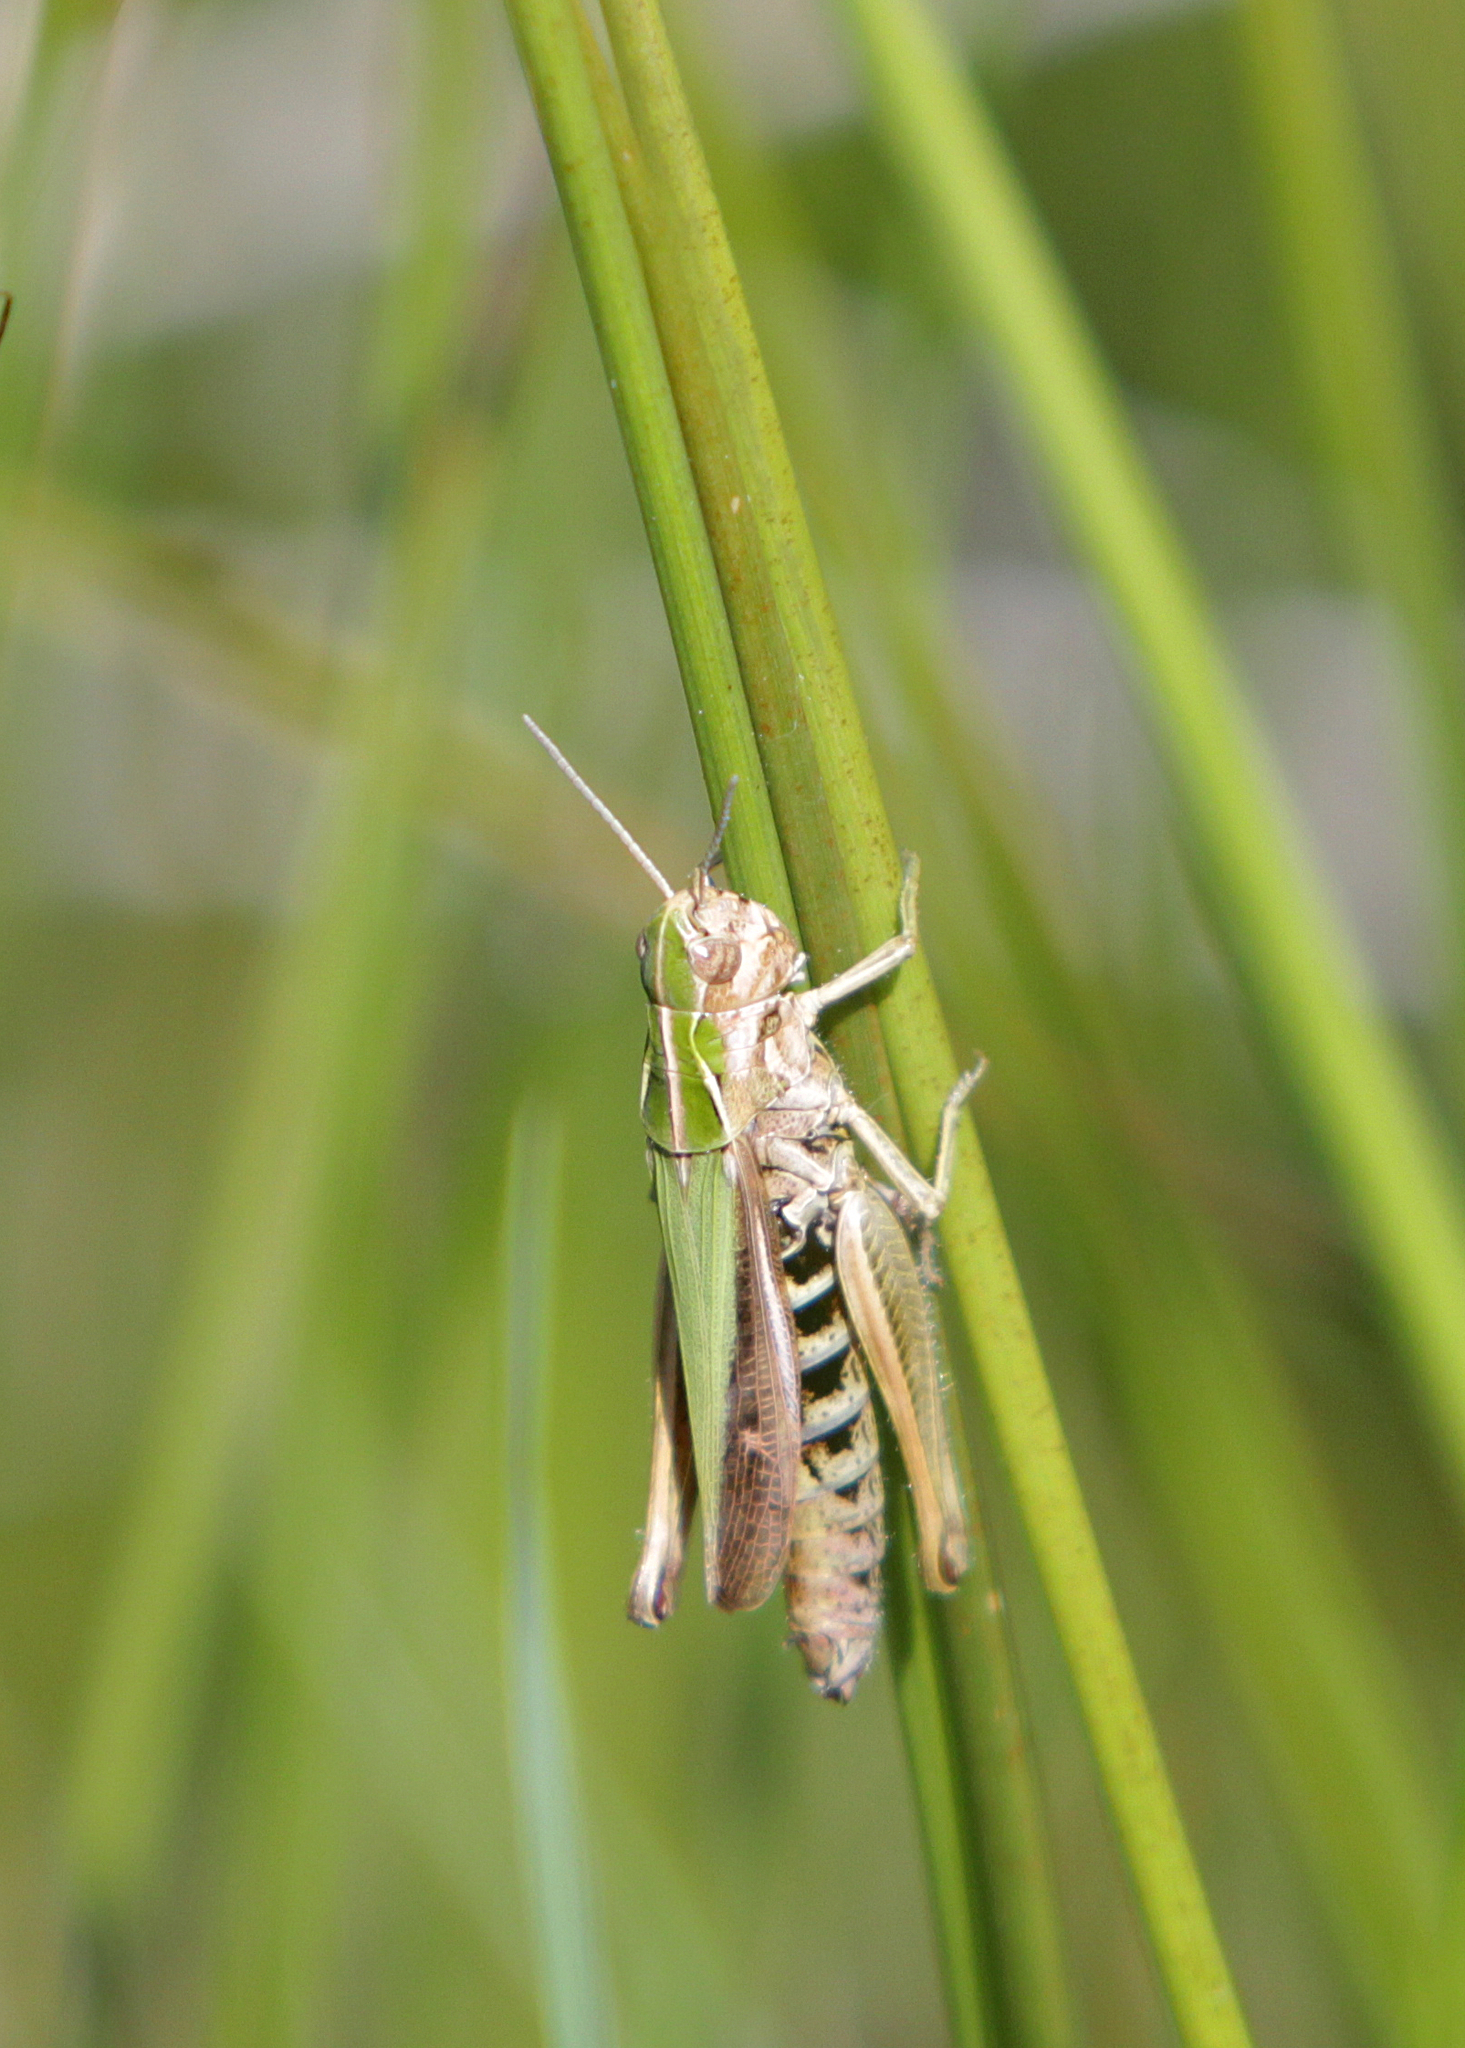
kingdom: Animalia
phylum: Arthropoda
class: Insecta
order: Orthoptera
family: Acrididae
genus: Omocestus
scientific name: Omocestus viridulus
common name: Common green grasshopper
